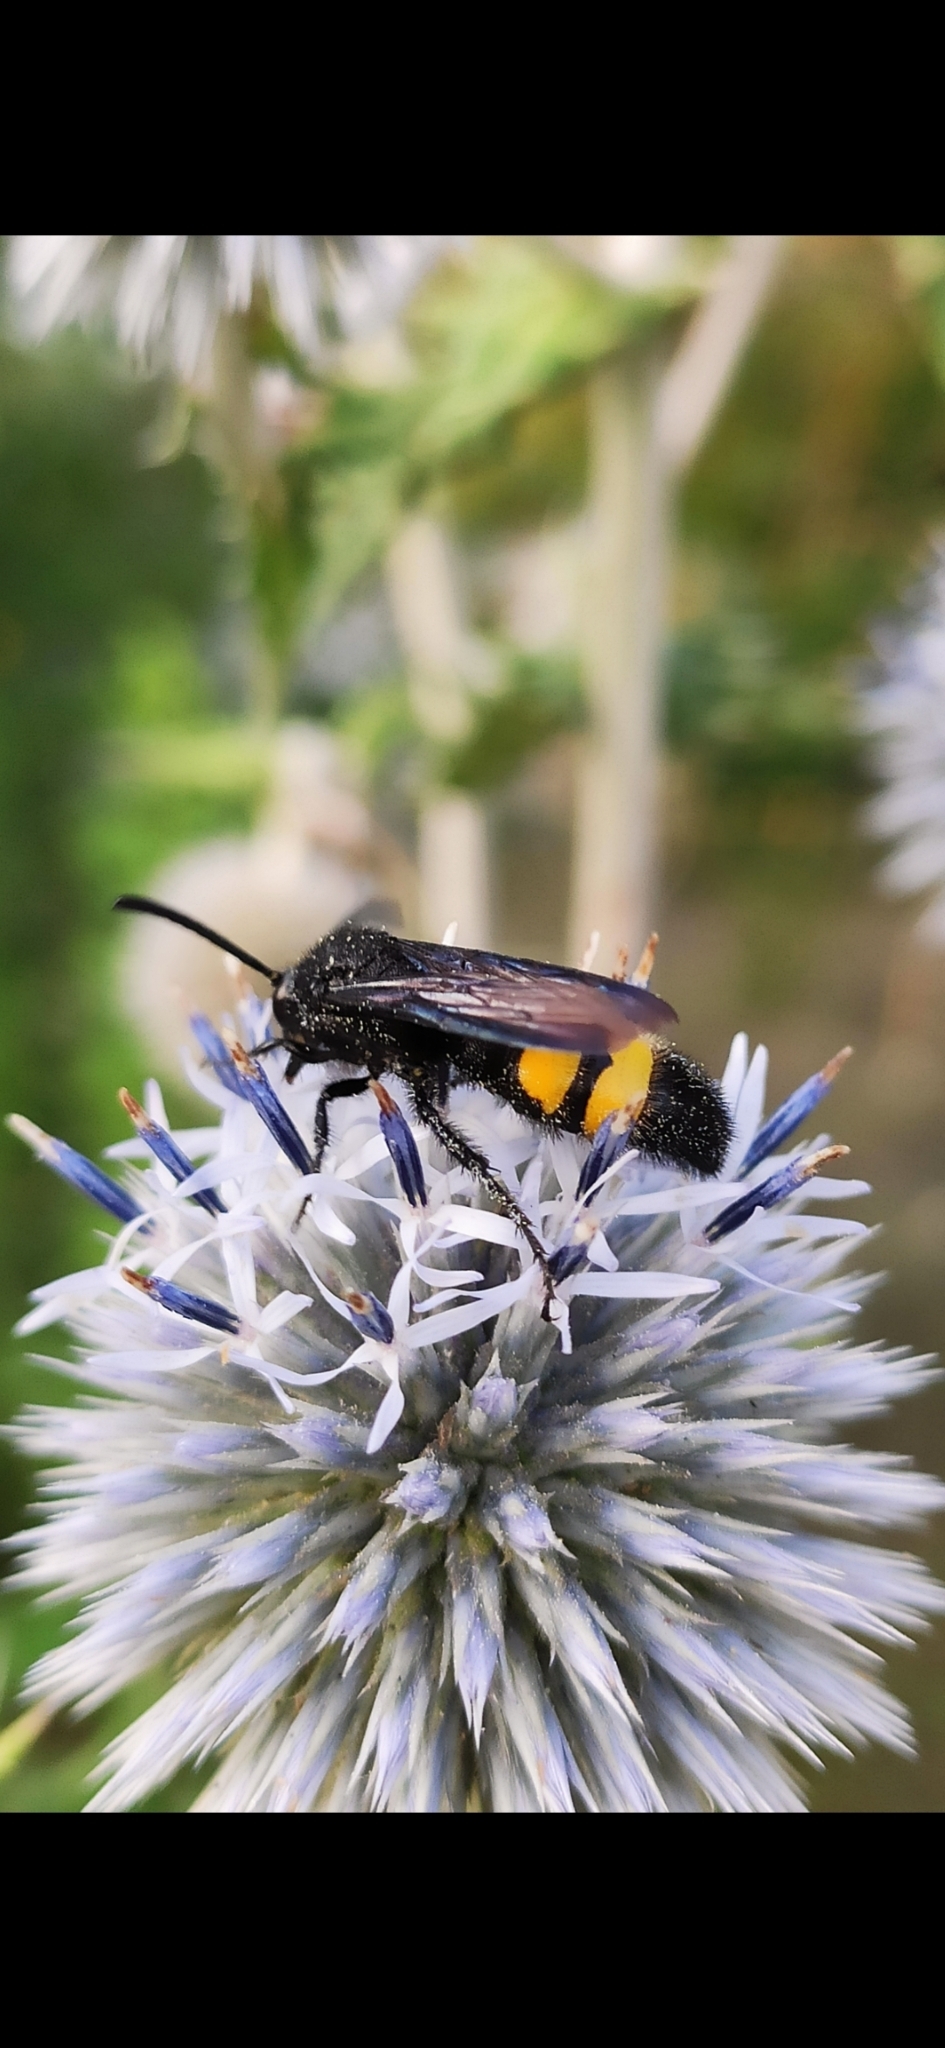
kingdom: Animalia
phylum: Arthropoda
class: Insecta
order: Hymenoptera
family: Scoliidae
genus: Scolia
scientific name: Scolia hirta
